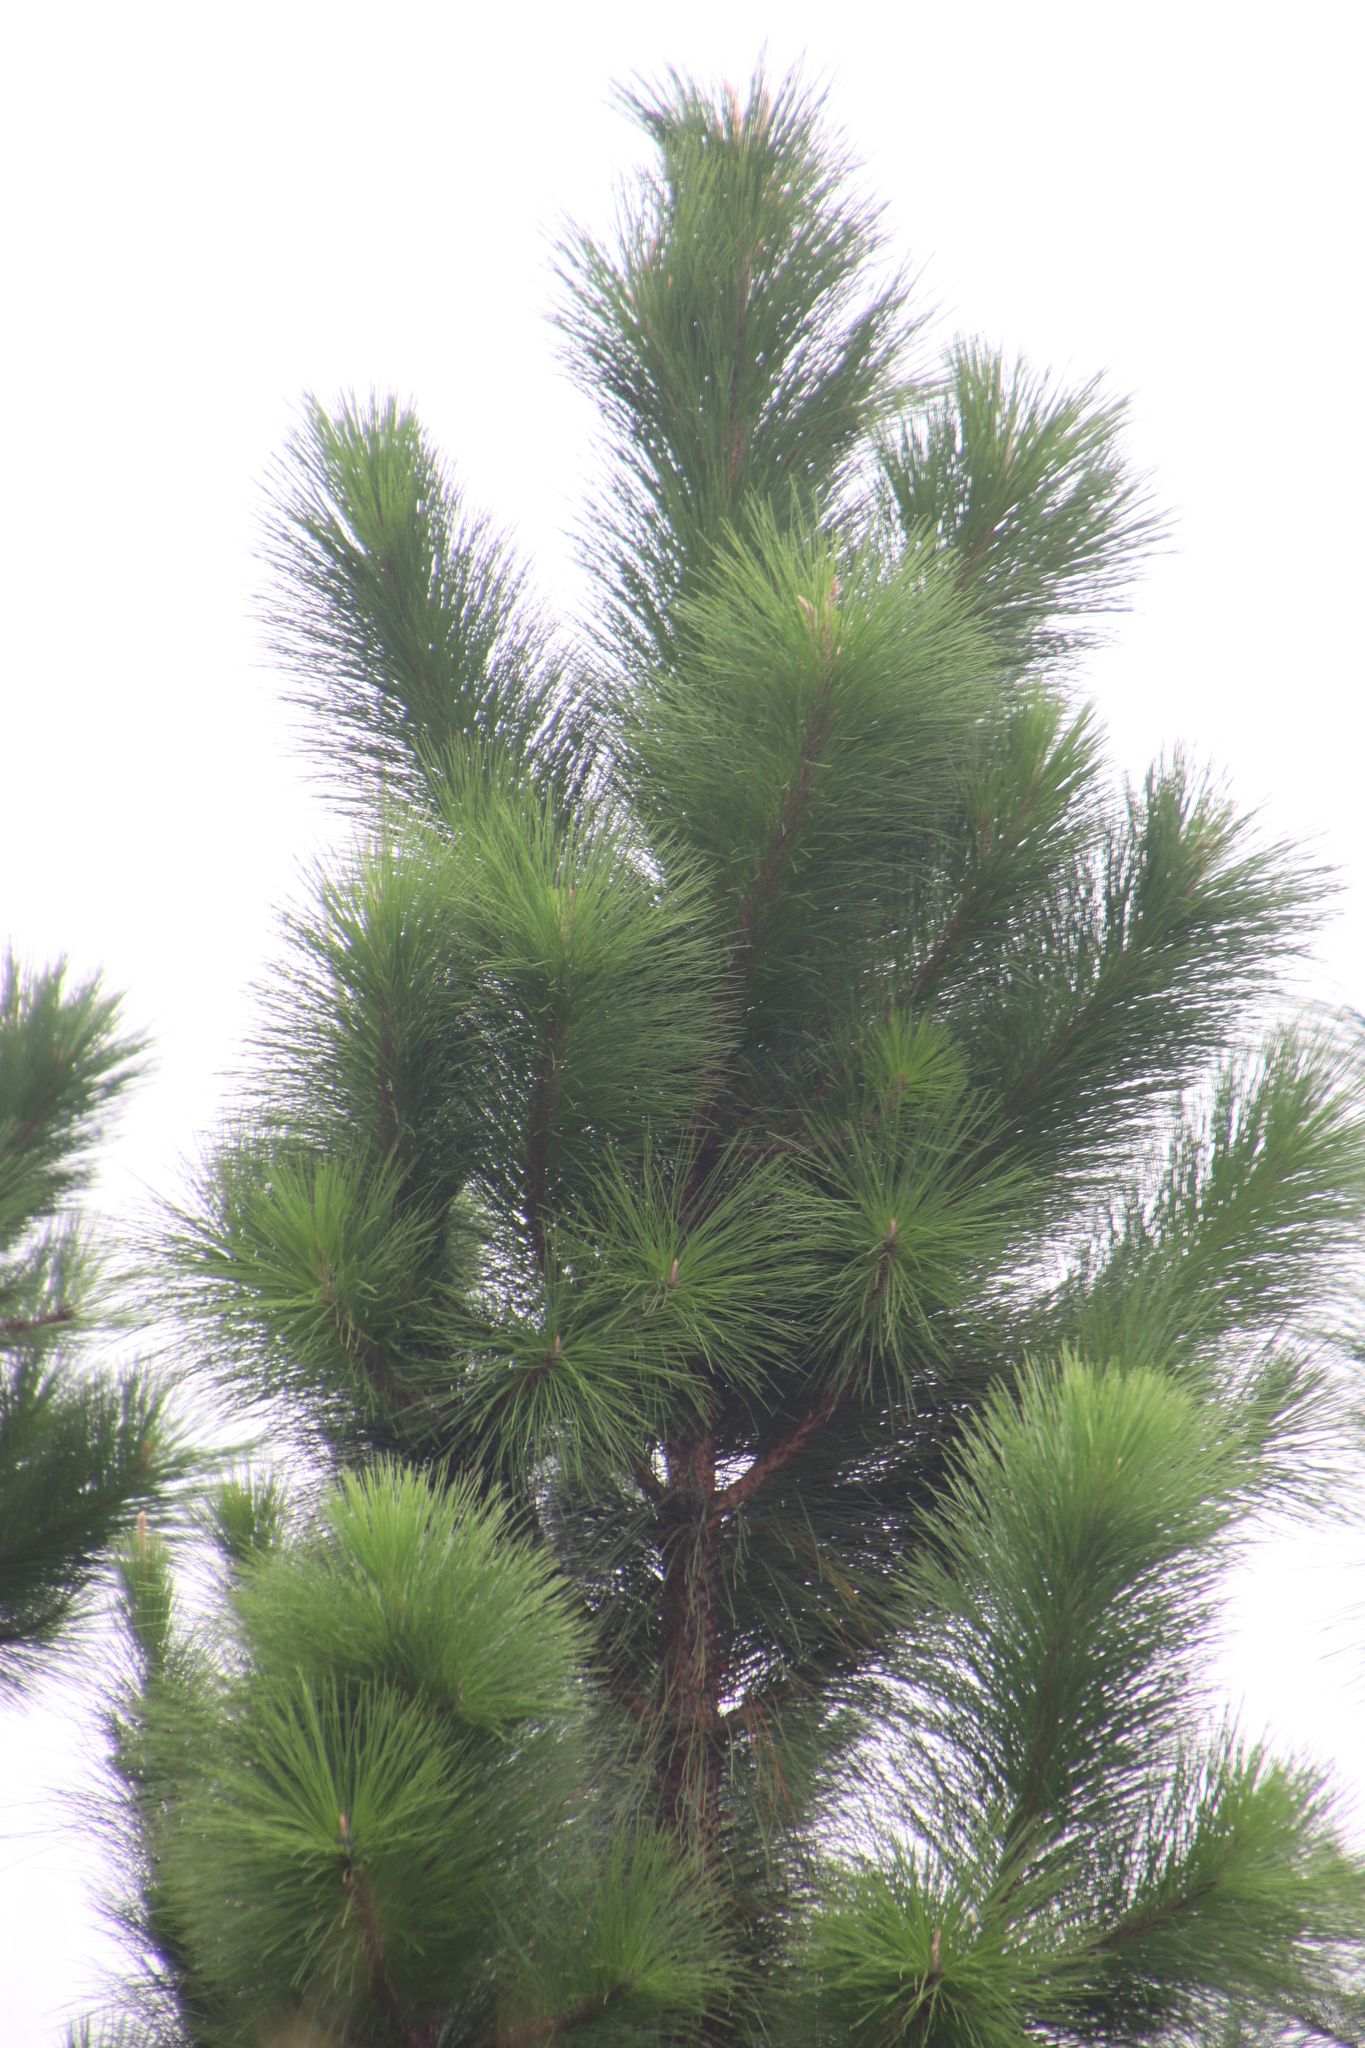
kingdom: Plantae
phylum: Tracheophyta
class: Pinopsida
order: Pinales
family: Pinaceae
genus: Pinus
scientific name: Pinus elliottii
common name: Slash pine
